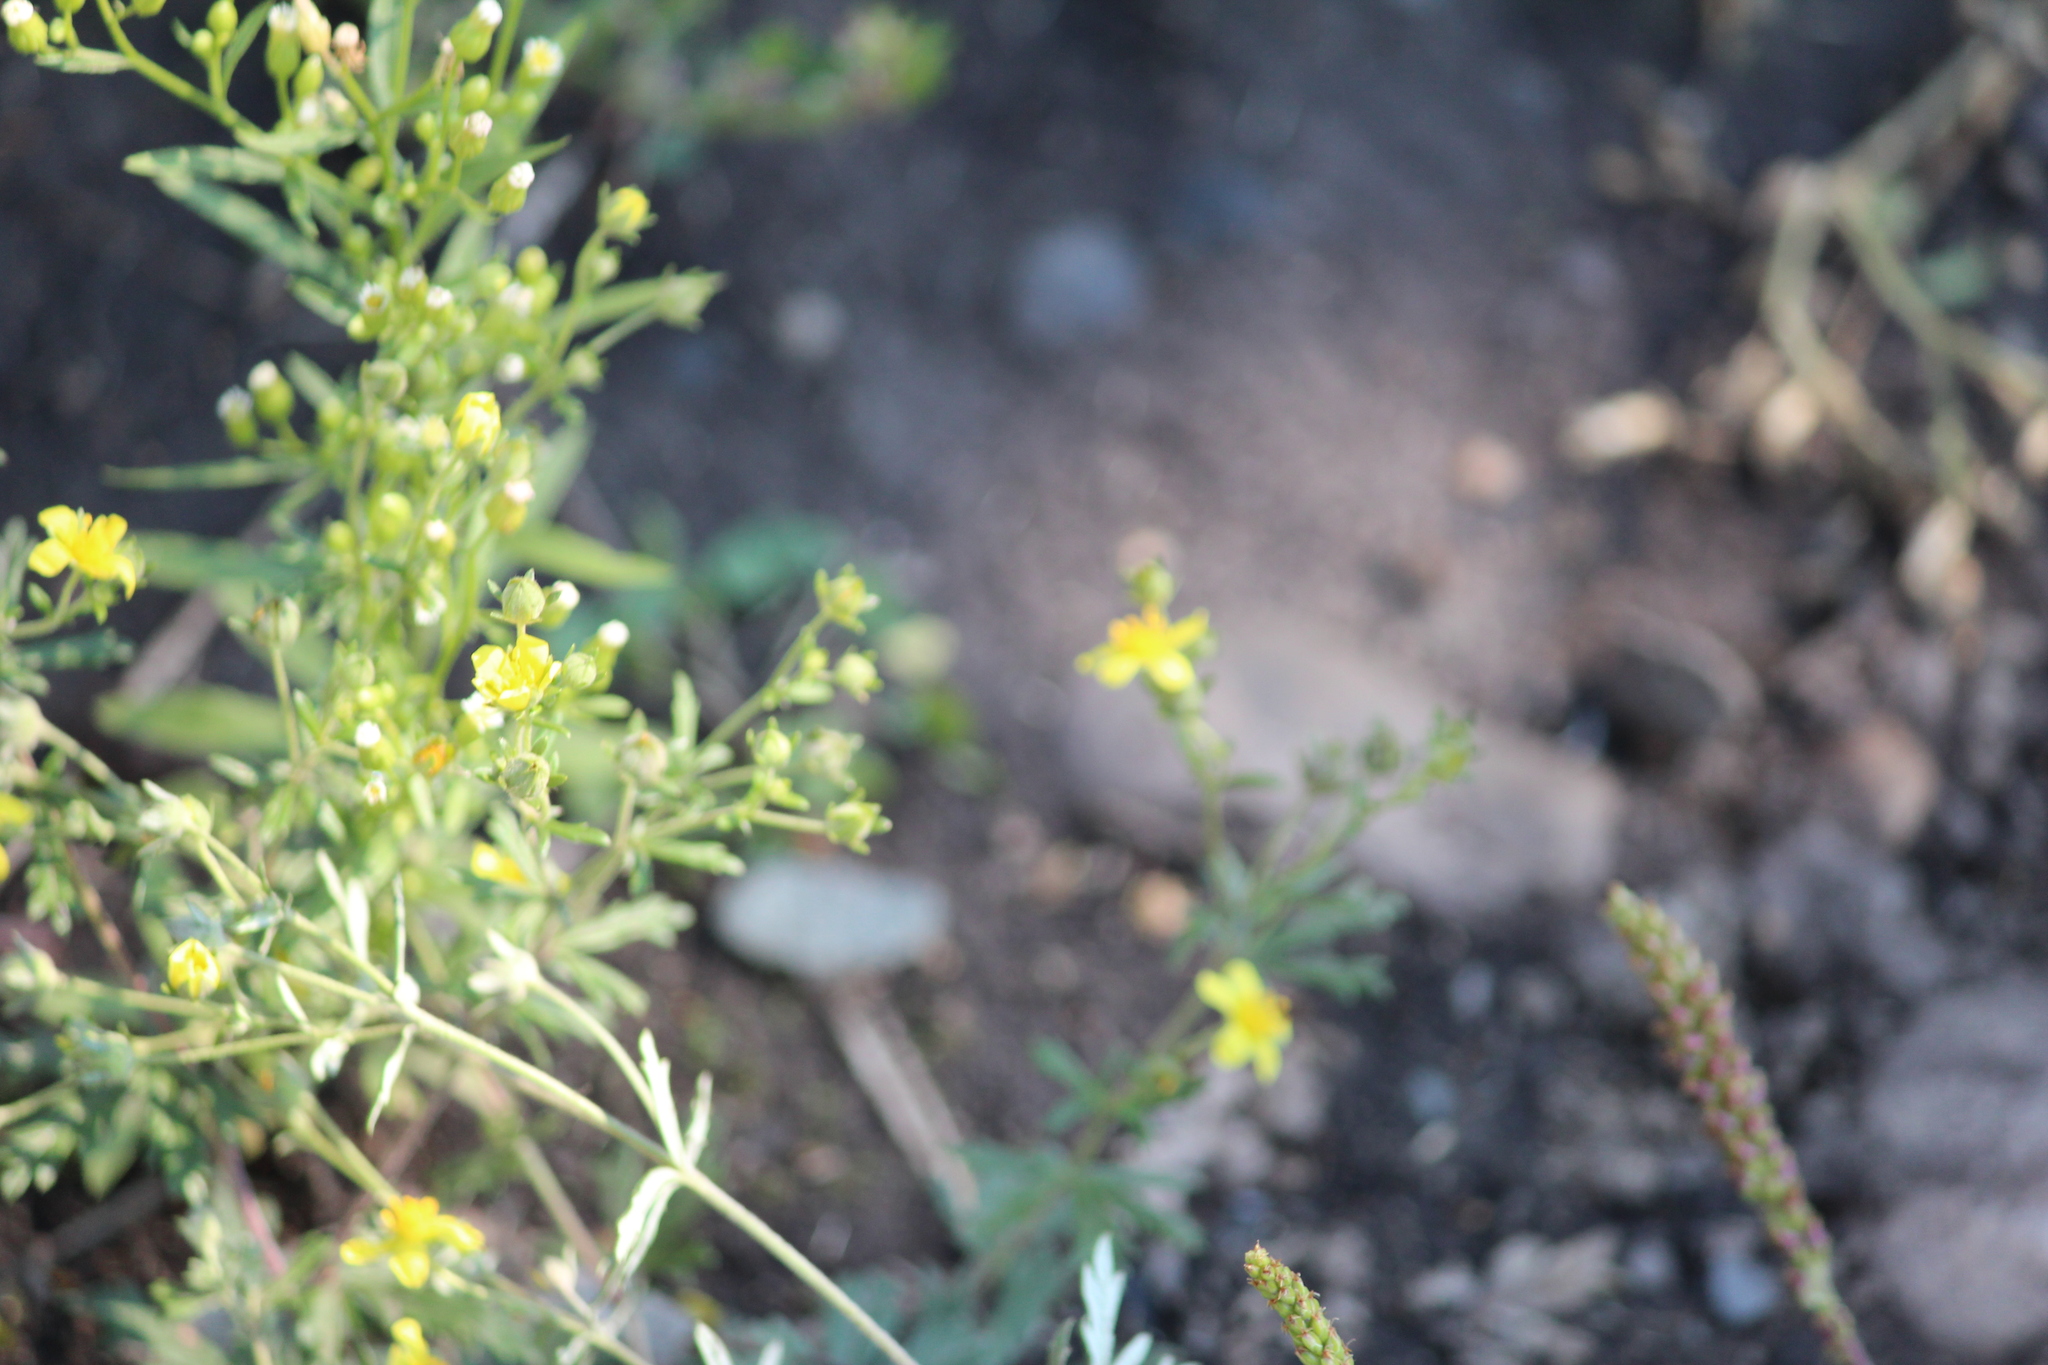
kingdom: Plantae
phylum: Tracheophyta
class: Magnoliopsida
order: Rosales
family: Rosaceae
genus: Potentilla
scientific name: Potentilla argentea
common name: Hoary cinquefoil
